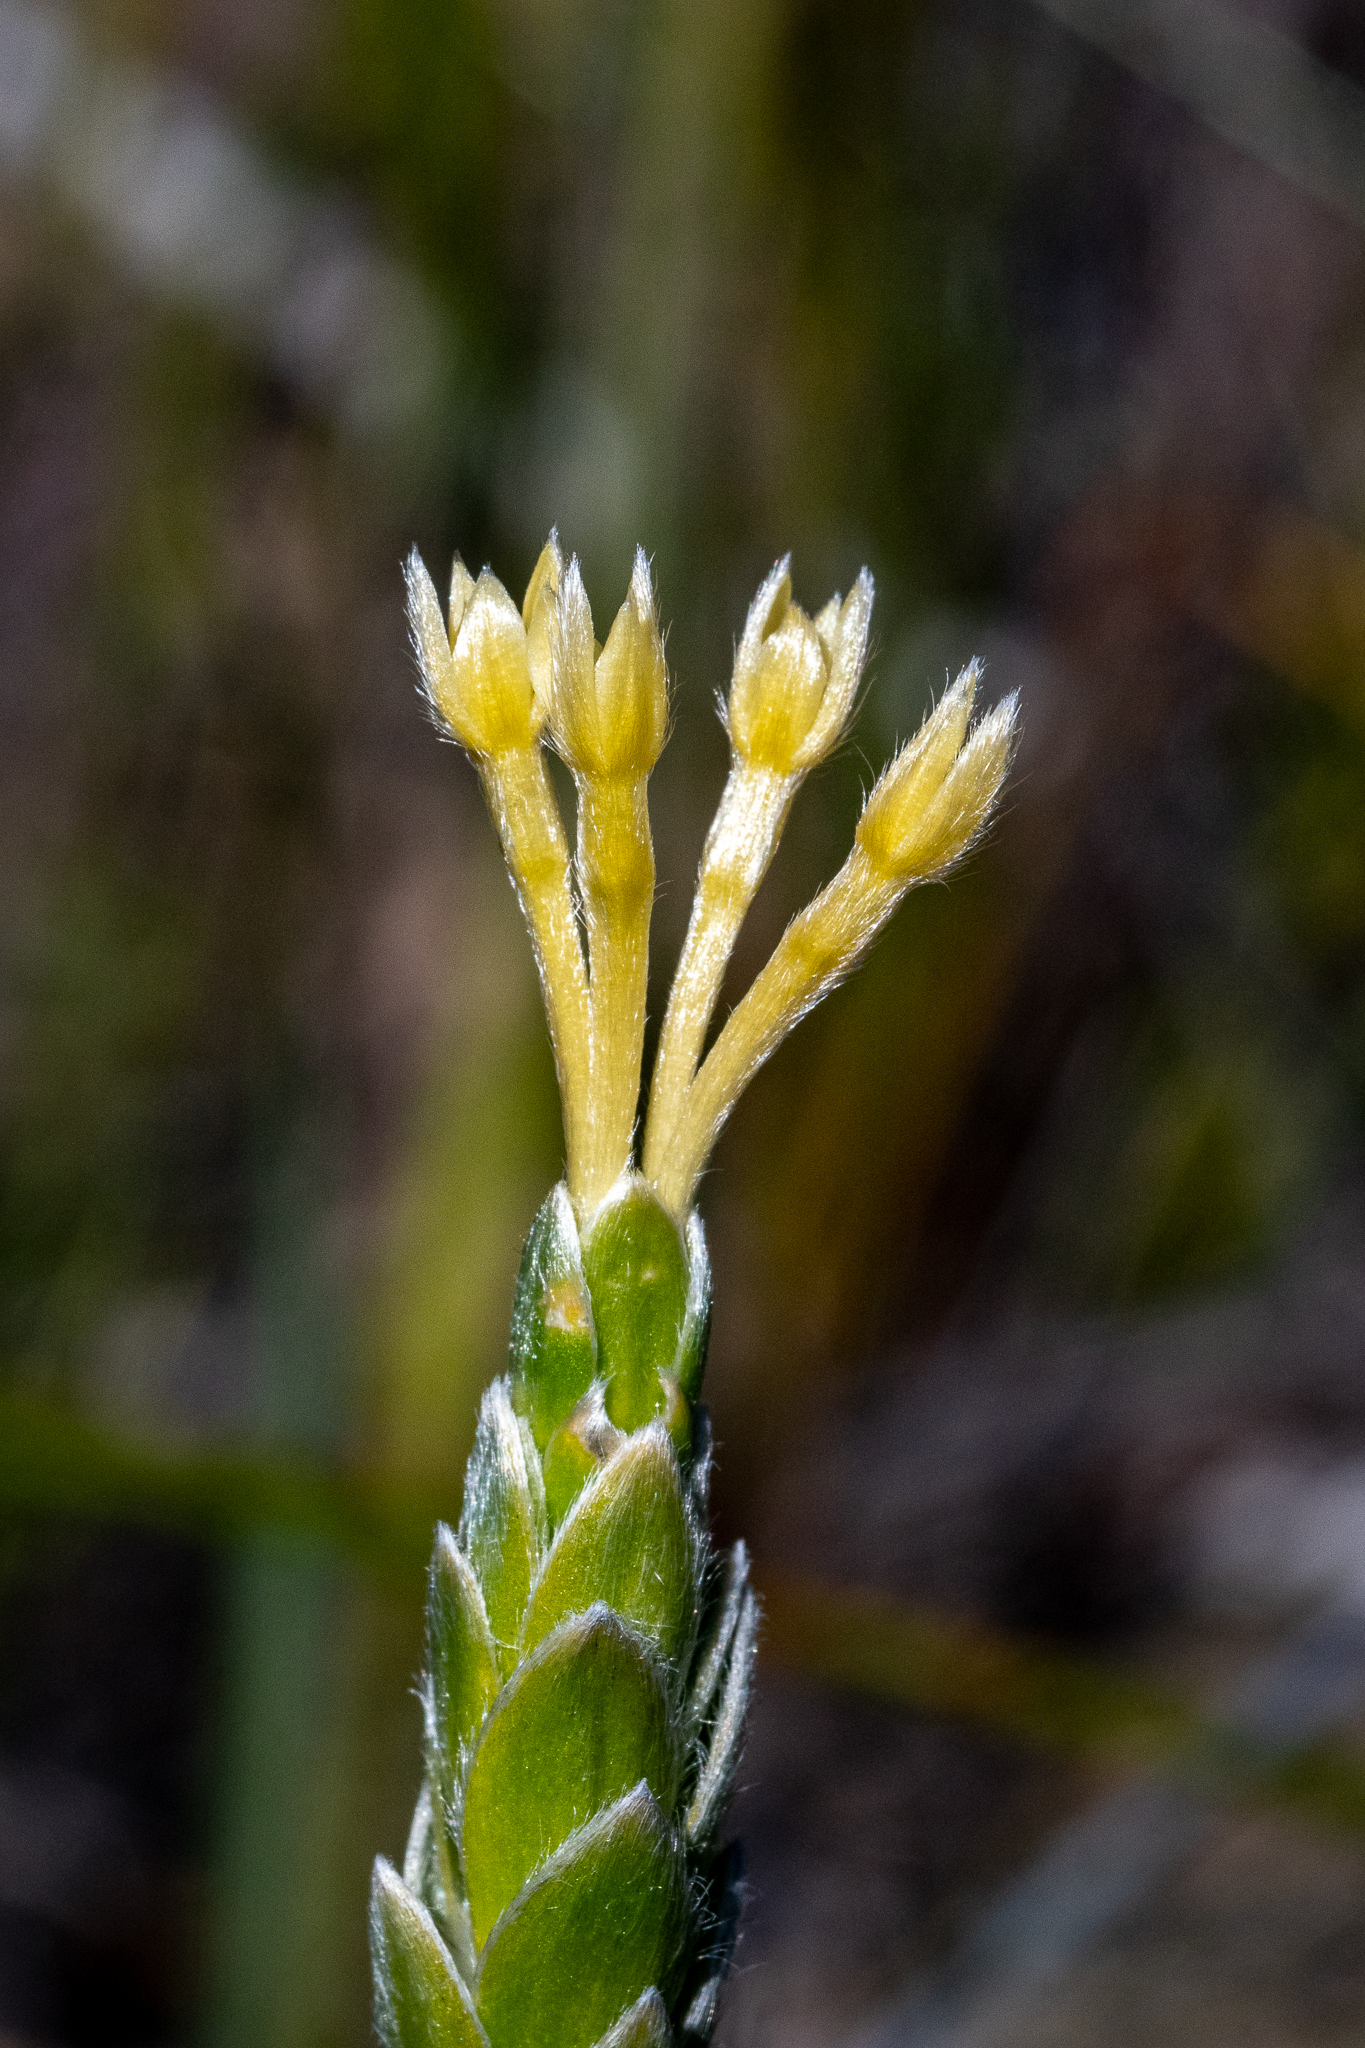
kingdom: Plantae
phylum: Tracheophyta
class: Magnoliopsida
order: Malvales
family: Thymelaeaceae
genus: Gnidia
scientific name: Gnidia anomala
